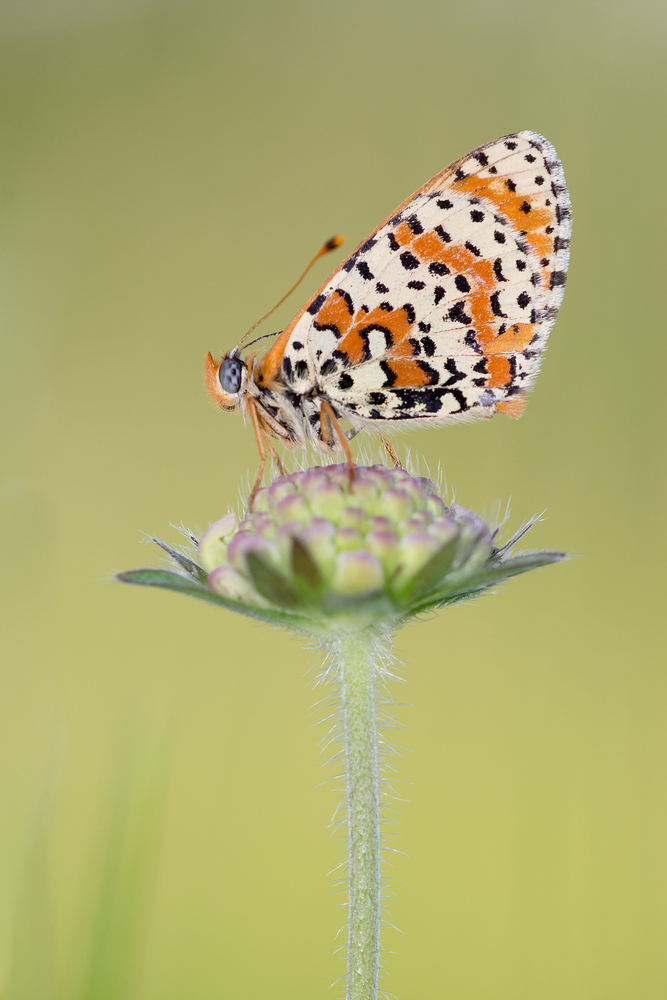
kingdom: Animalia
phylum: Arthropoda
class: Insecta
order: Lepidoptera
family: Nymphalidae
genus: Melitaea
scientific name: Melitaea didyma
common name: Spotted fritillary
